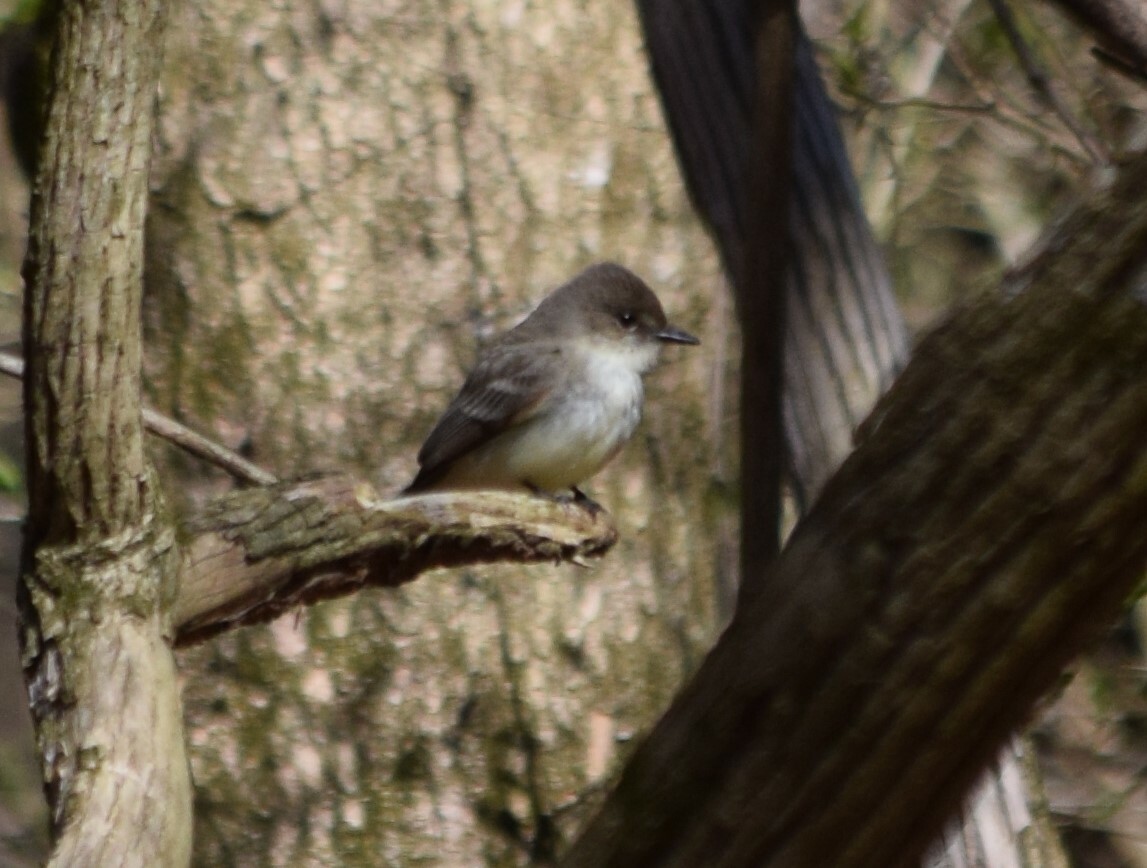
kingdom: Animalia
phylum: Chordata
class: Aves
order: Passeriformes
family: Tyrannidae
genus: Sayornis
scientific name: Sayornis phoebe
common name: Eastern phoebe
